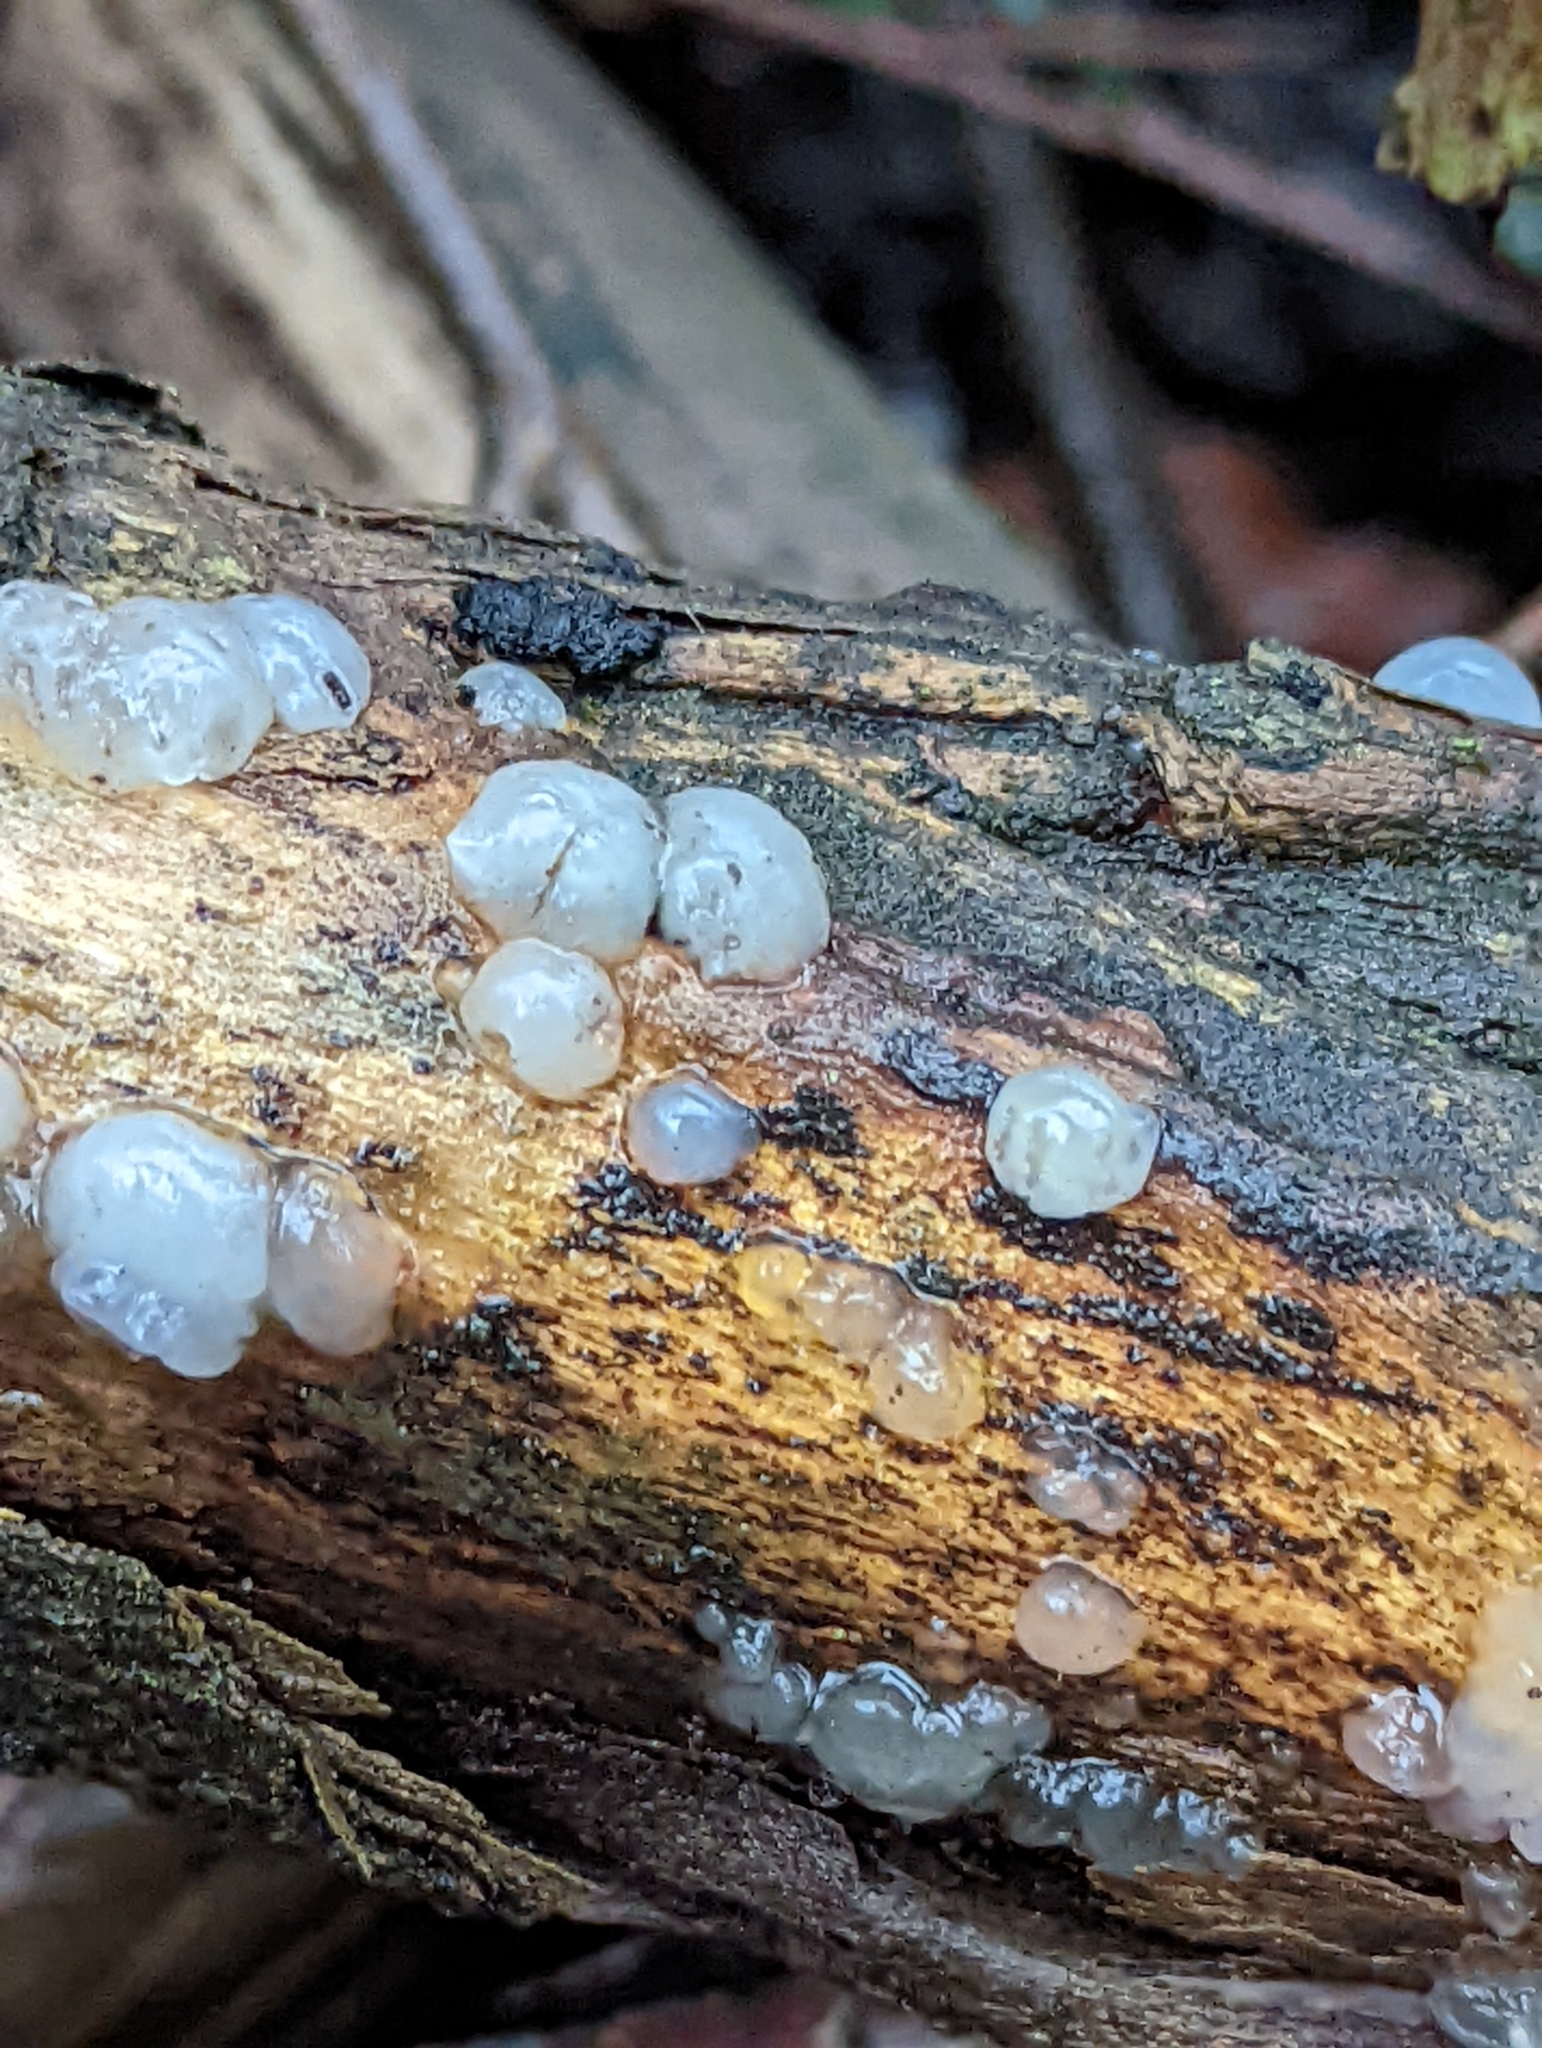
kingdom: Fungi
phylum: Basidiomycota
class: Agaricomycetes
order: Auriculariales
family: Hyaloriaceae
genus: Myxarium
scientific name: Myxarium nucleatum
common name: Crystal brain fungus
